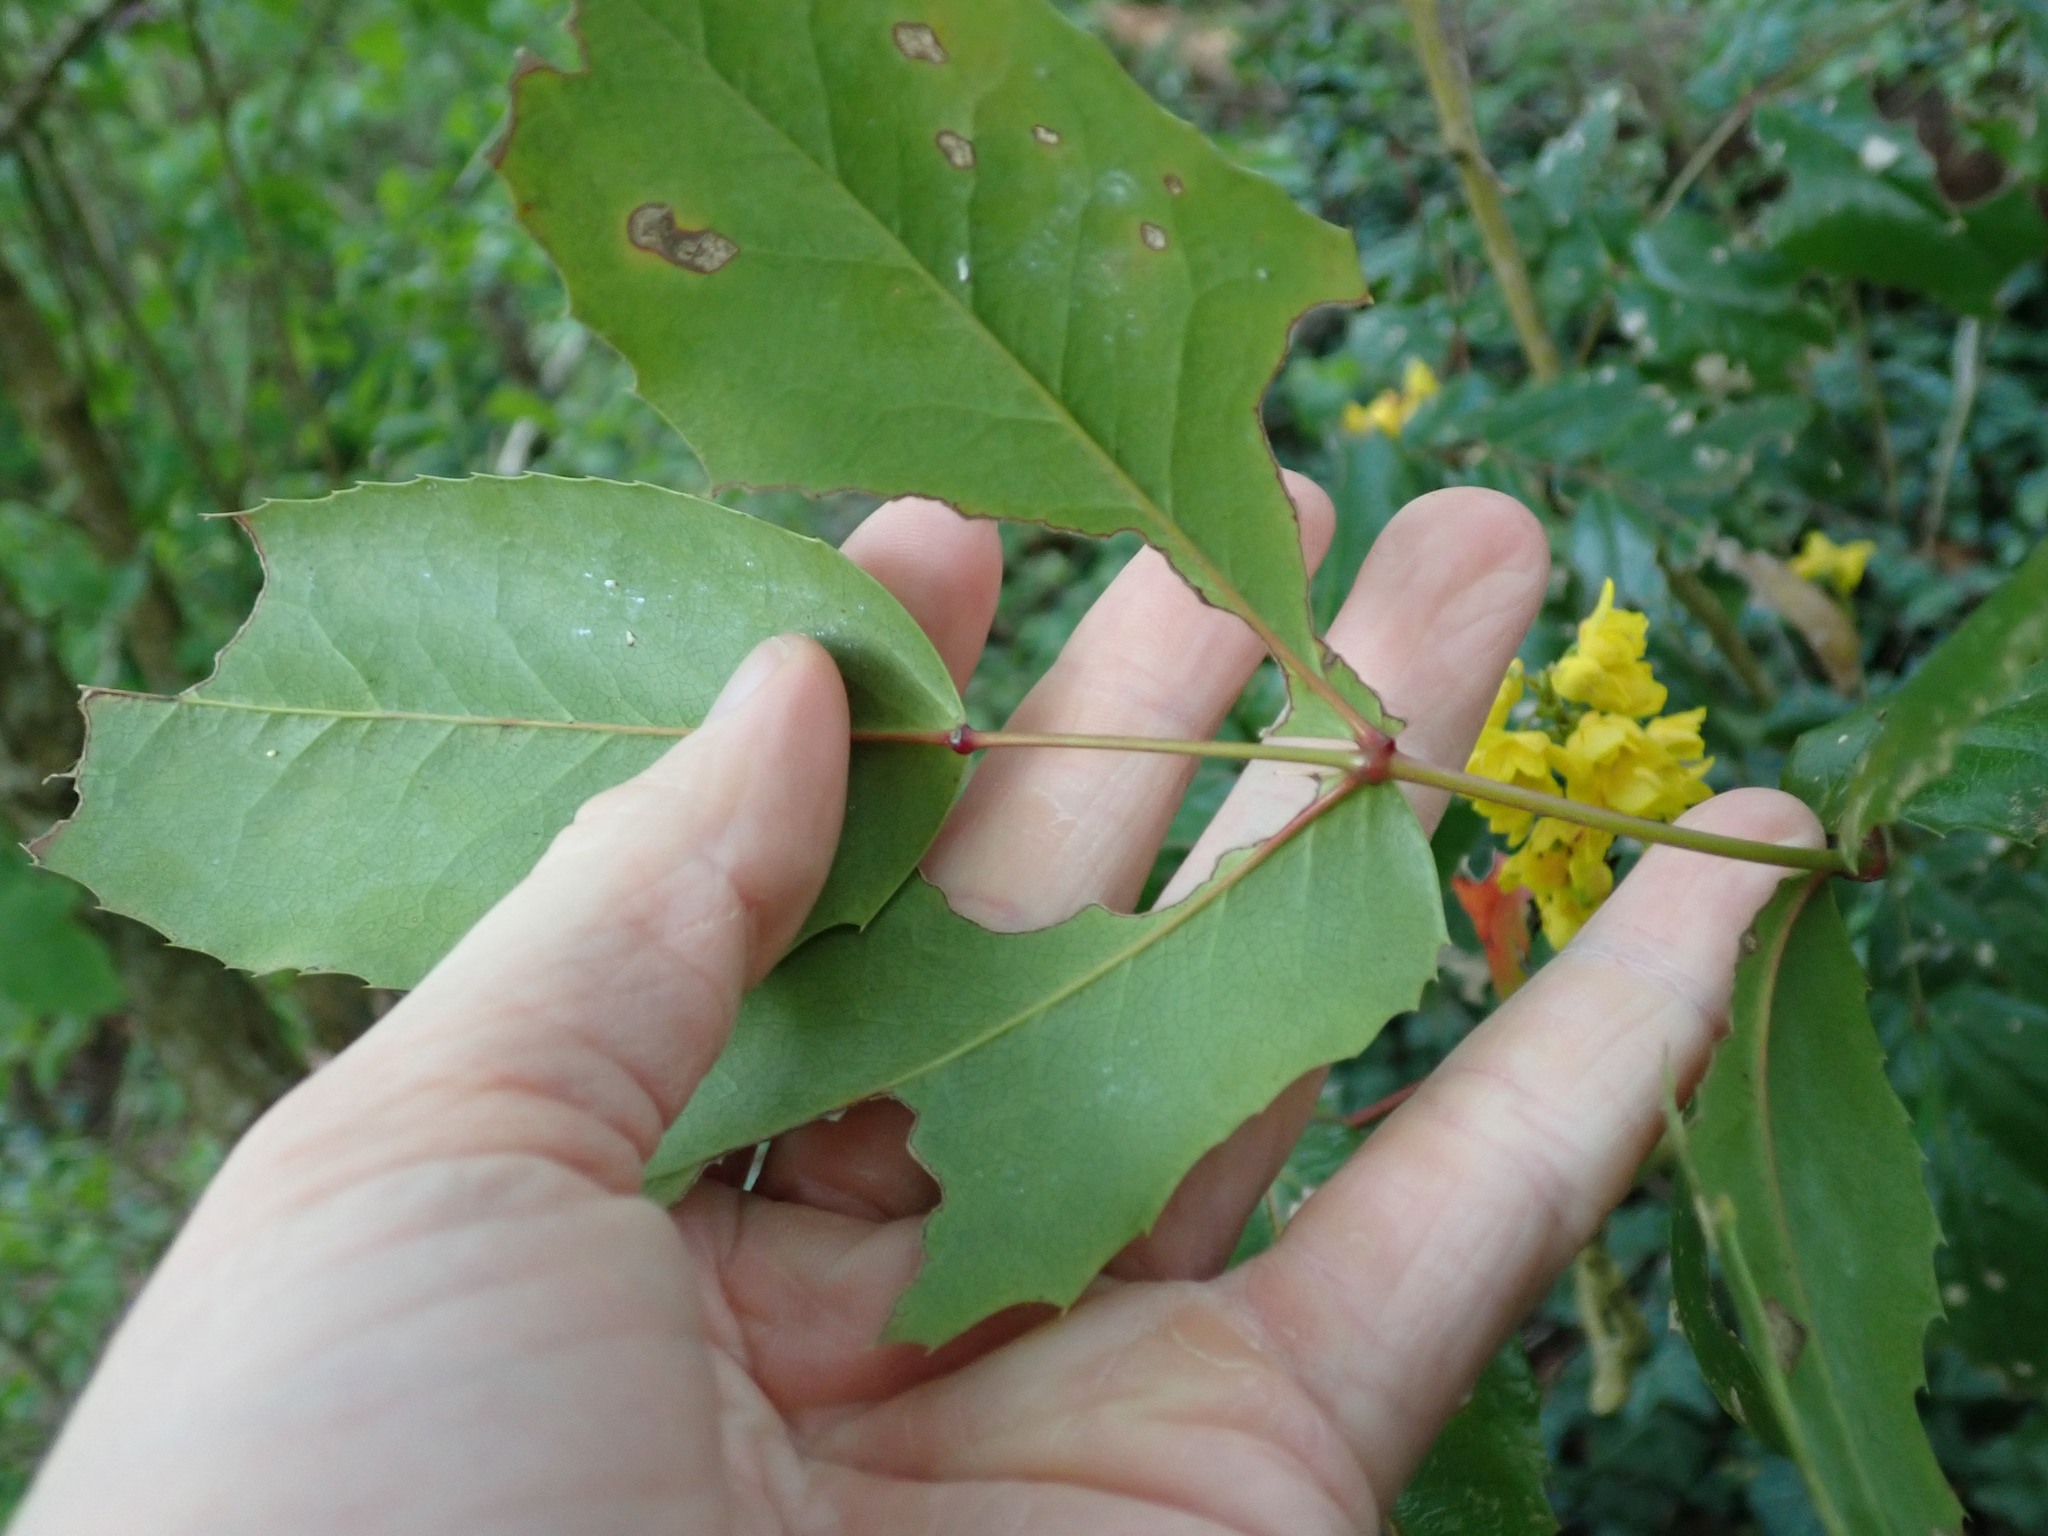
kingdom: Plantae
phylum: Tracheophyta
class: Magnoliopsida
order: Ranunculales
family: Berberidaceae
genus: Mahonia
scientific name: Mahonia aquifolium
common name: Oregon-grape
